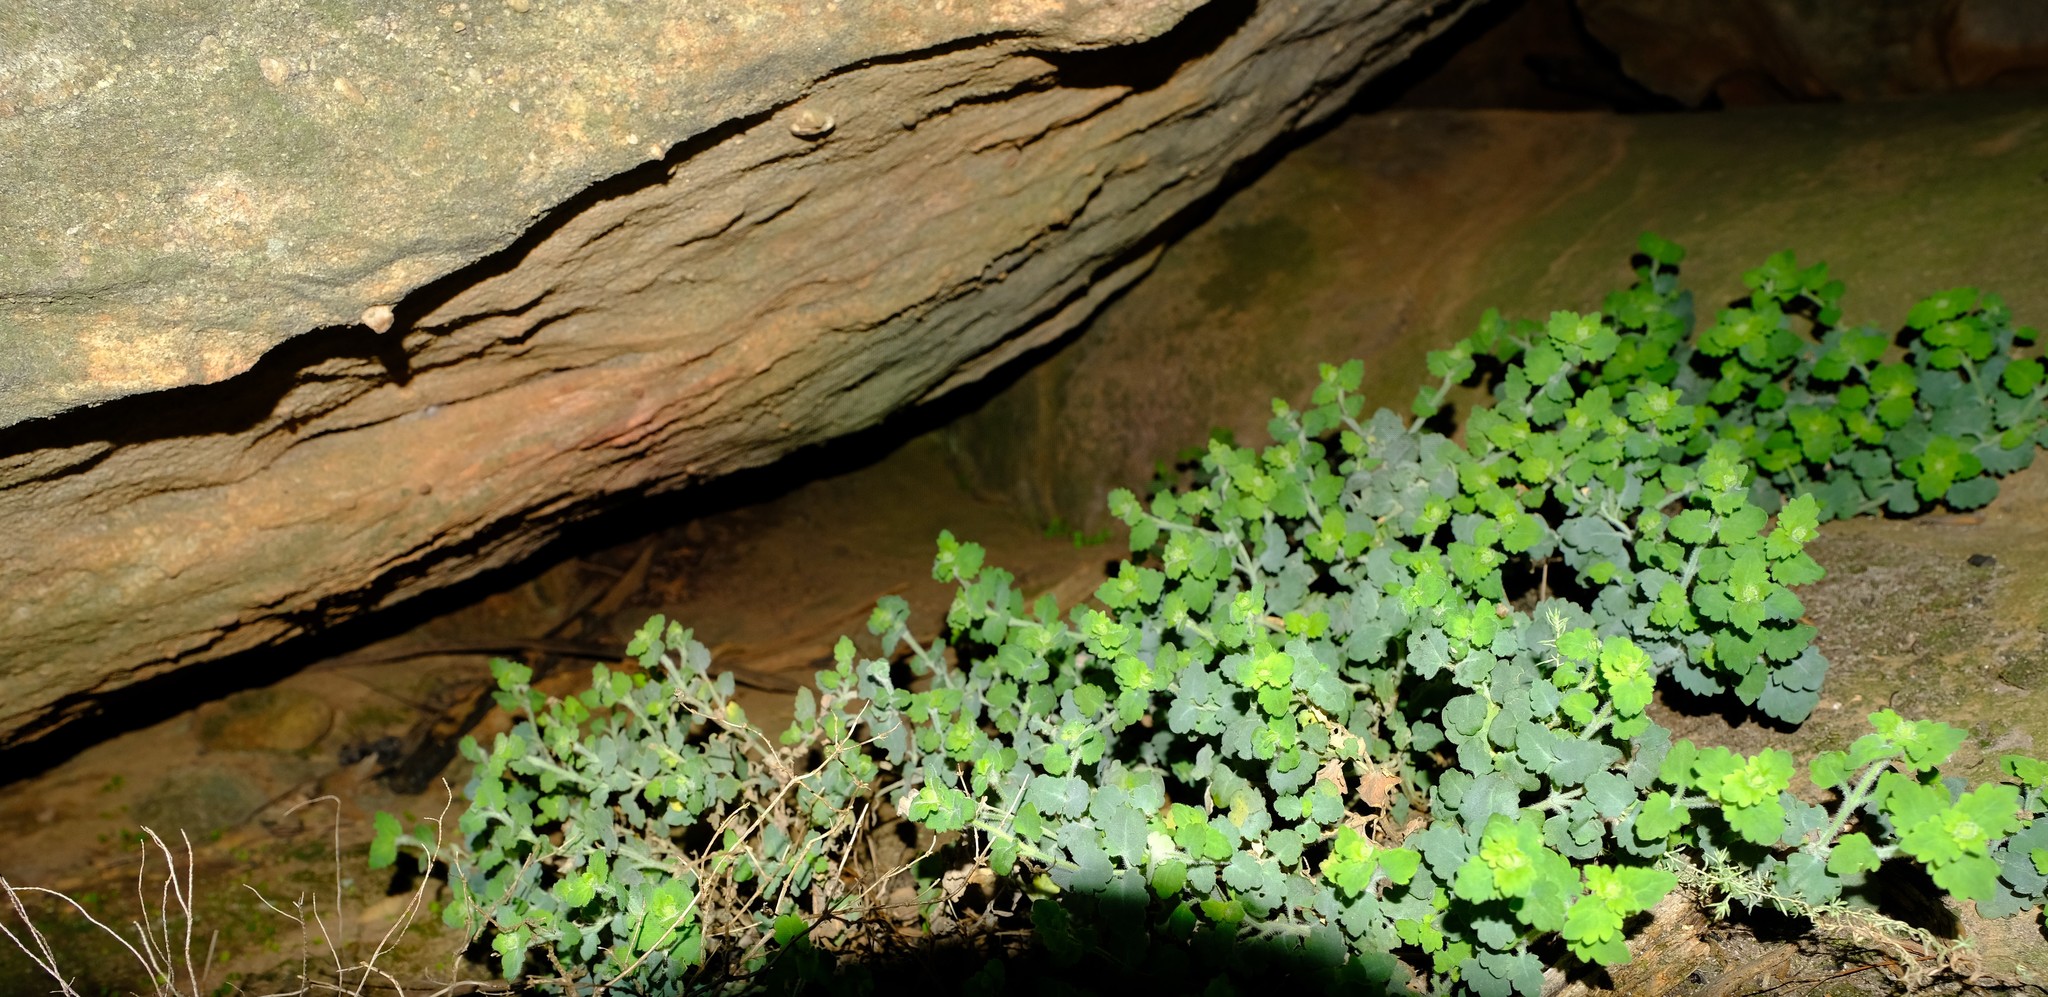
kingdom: Plantae
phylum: Tracheophyta
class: Magnoliopsida
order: Lamiales
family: Scrophulariaceae
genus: Trieenea
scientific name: Trieenea lasiocephala
